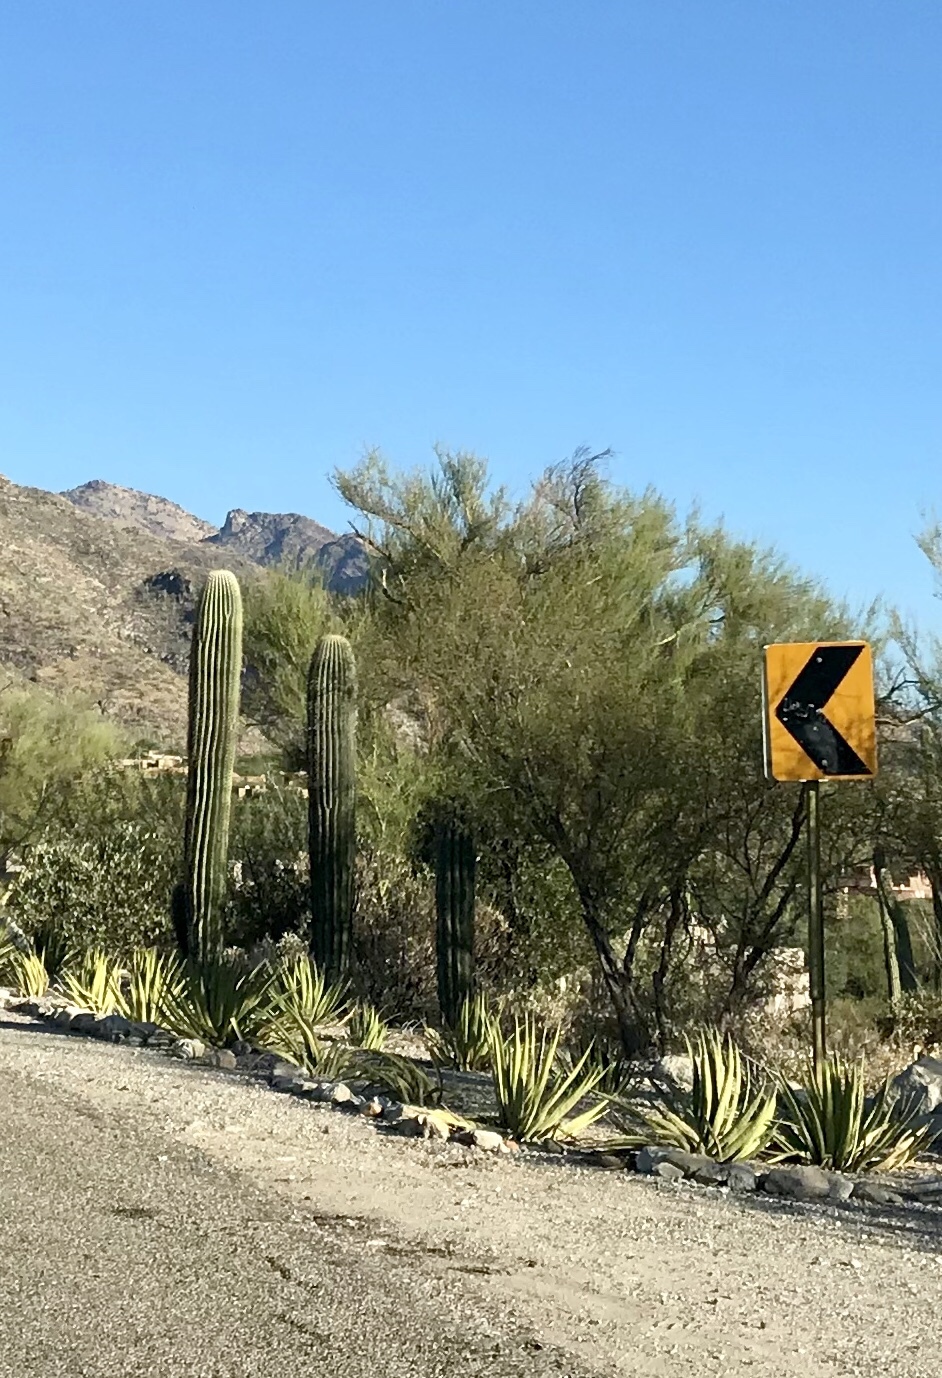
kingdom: Plantae
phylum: Tracheophyta
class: Magnoliopsida
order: Caryophyllales
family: Cactaceae
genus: Carnegiea
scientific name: Carnegiea gigantea
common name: Saguaro
